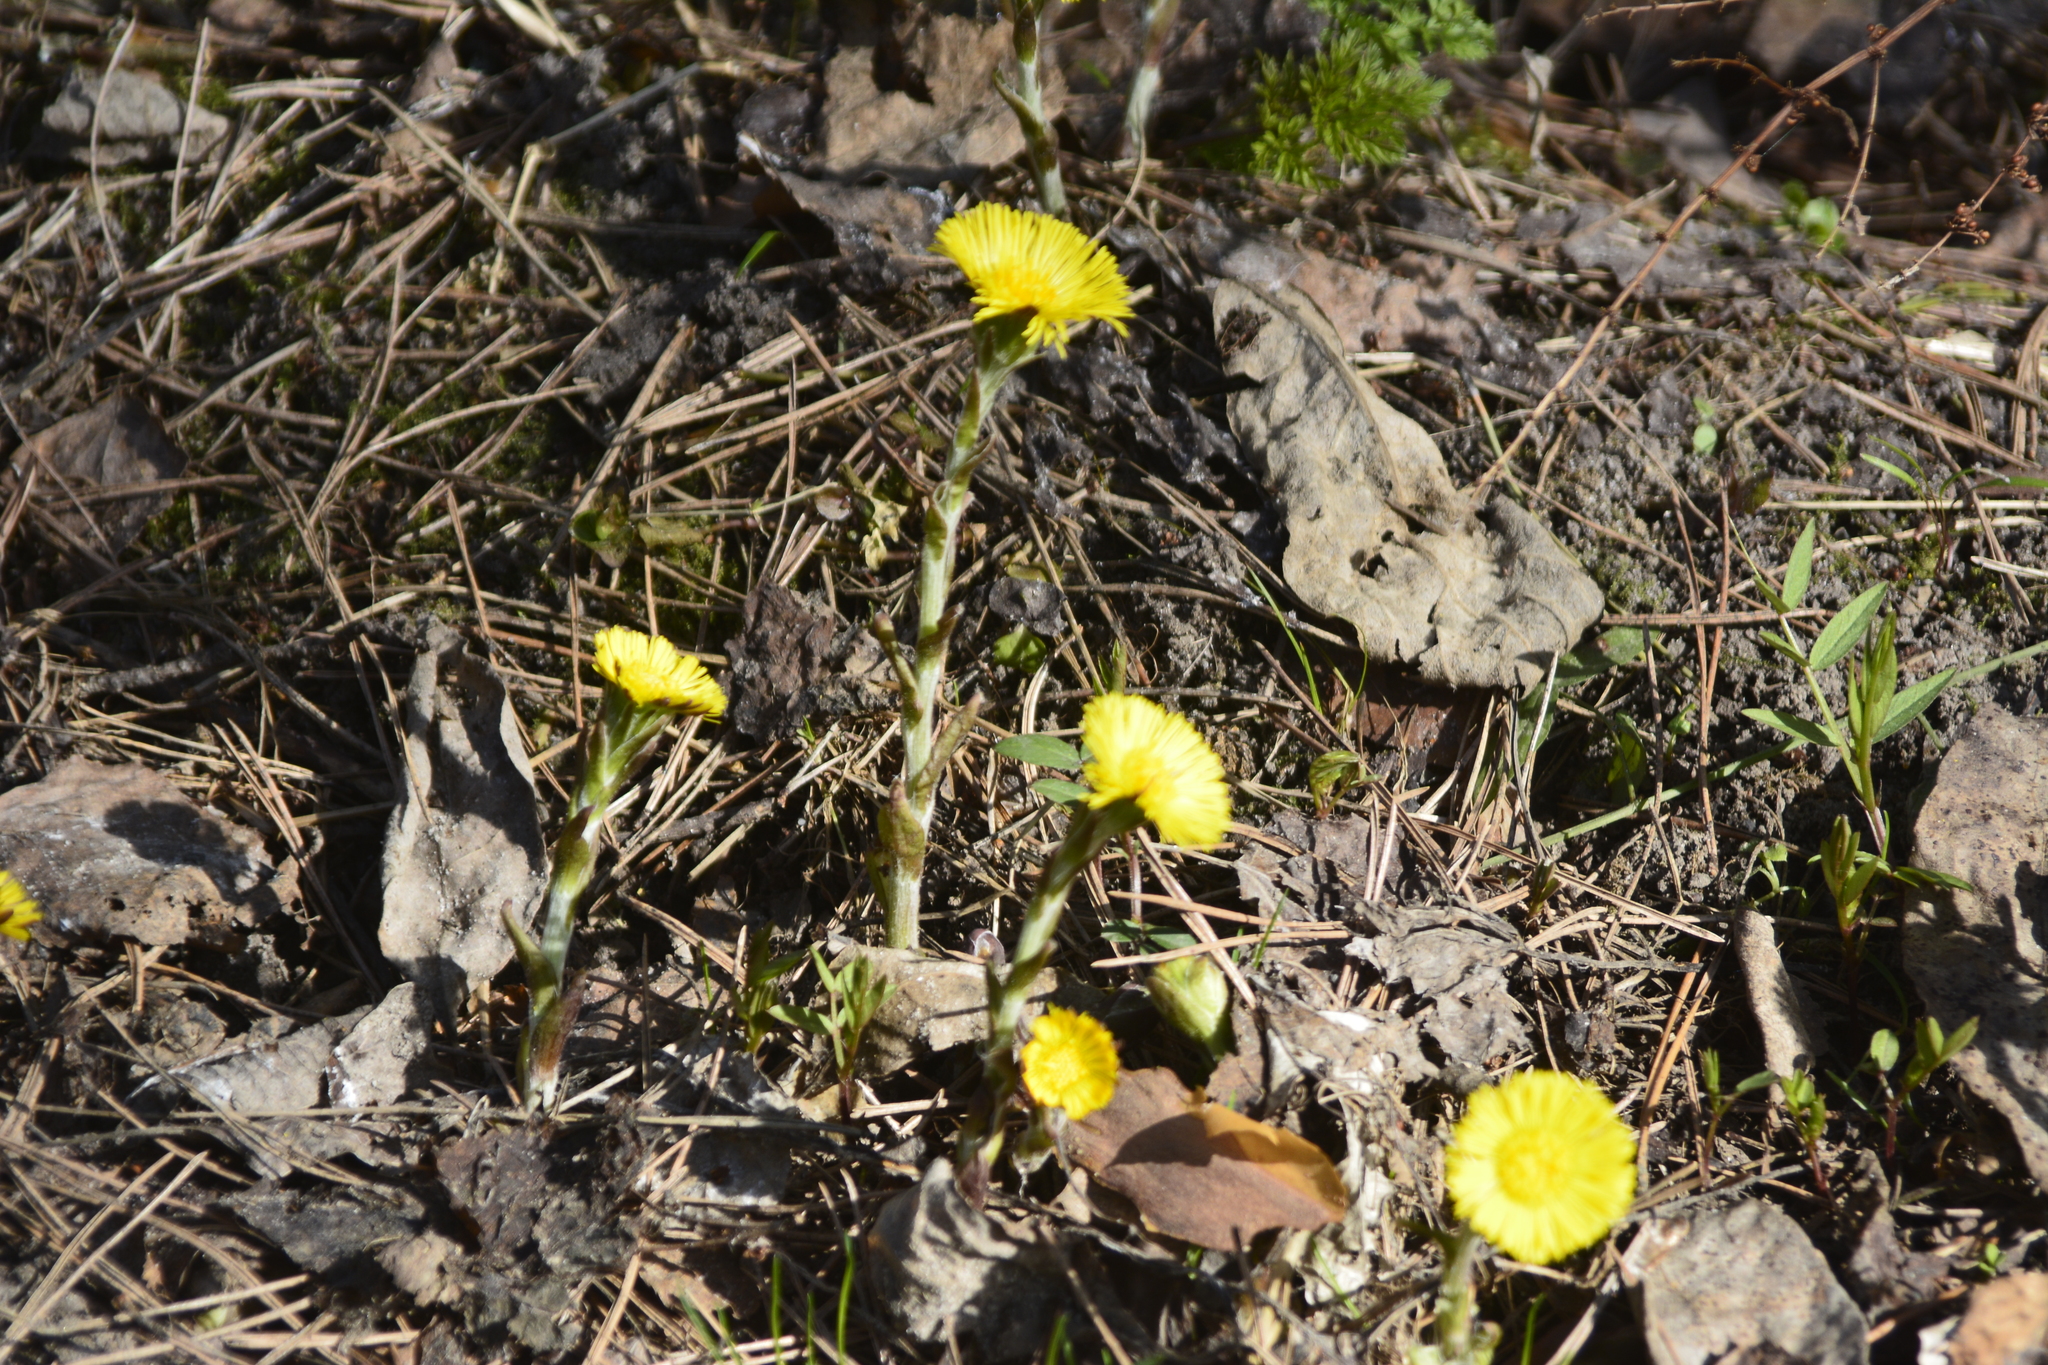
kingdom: Plantae
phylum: Tracheophyta
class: Magnoliopsida
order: Asterales
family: Asteraceae
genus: Tussilago
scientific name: Tussilago farfara
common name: Coltsfoot
